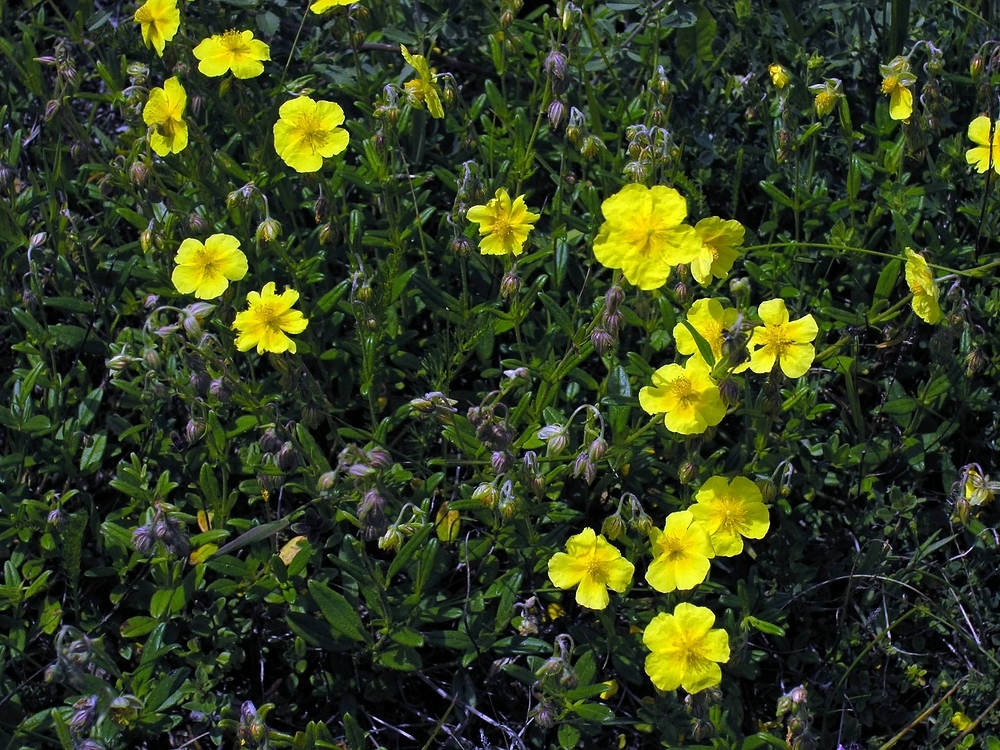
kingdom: Plantae
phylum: Tracheophyta
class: Magnoliopsida
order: Malvales
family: Cistaceae
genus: Helianthemum
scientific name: Helianthemum nummularium
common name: Common rock-rose
